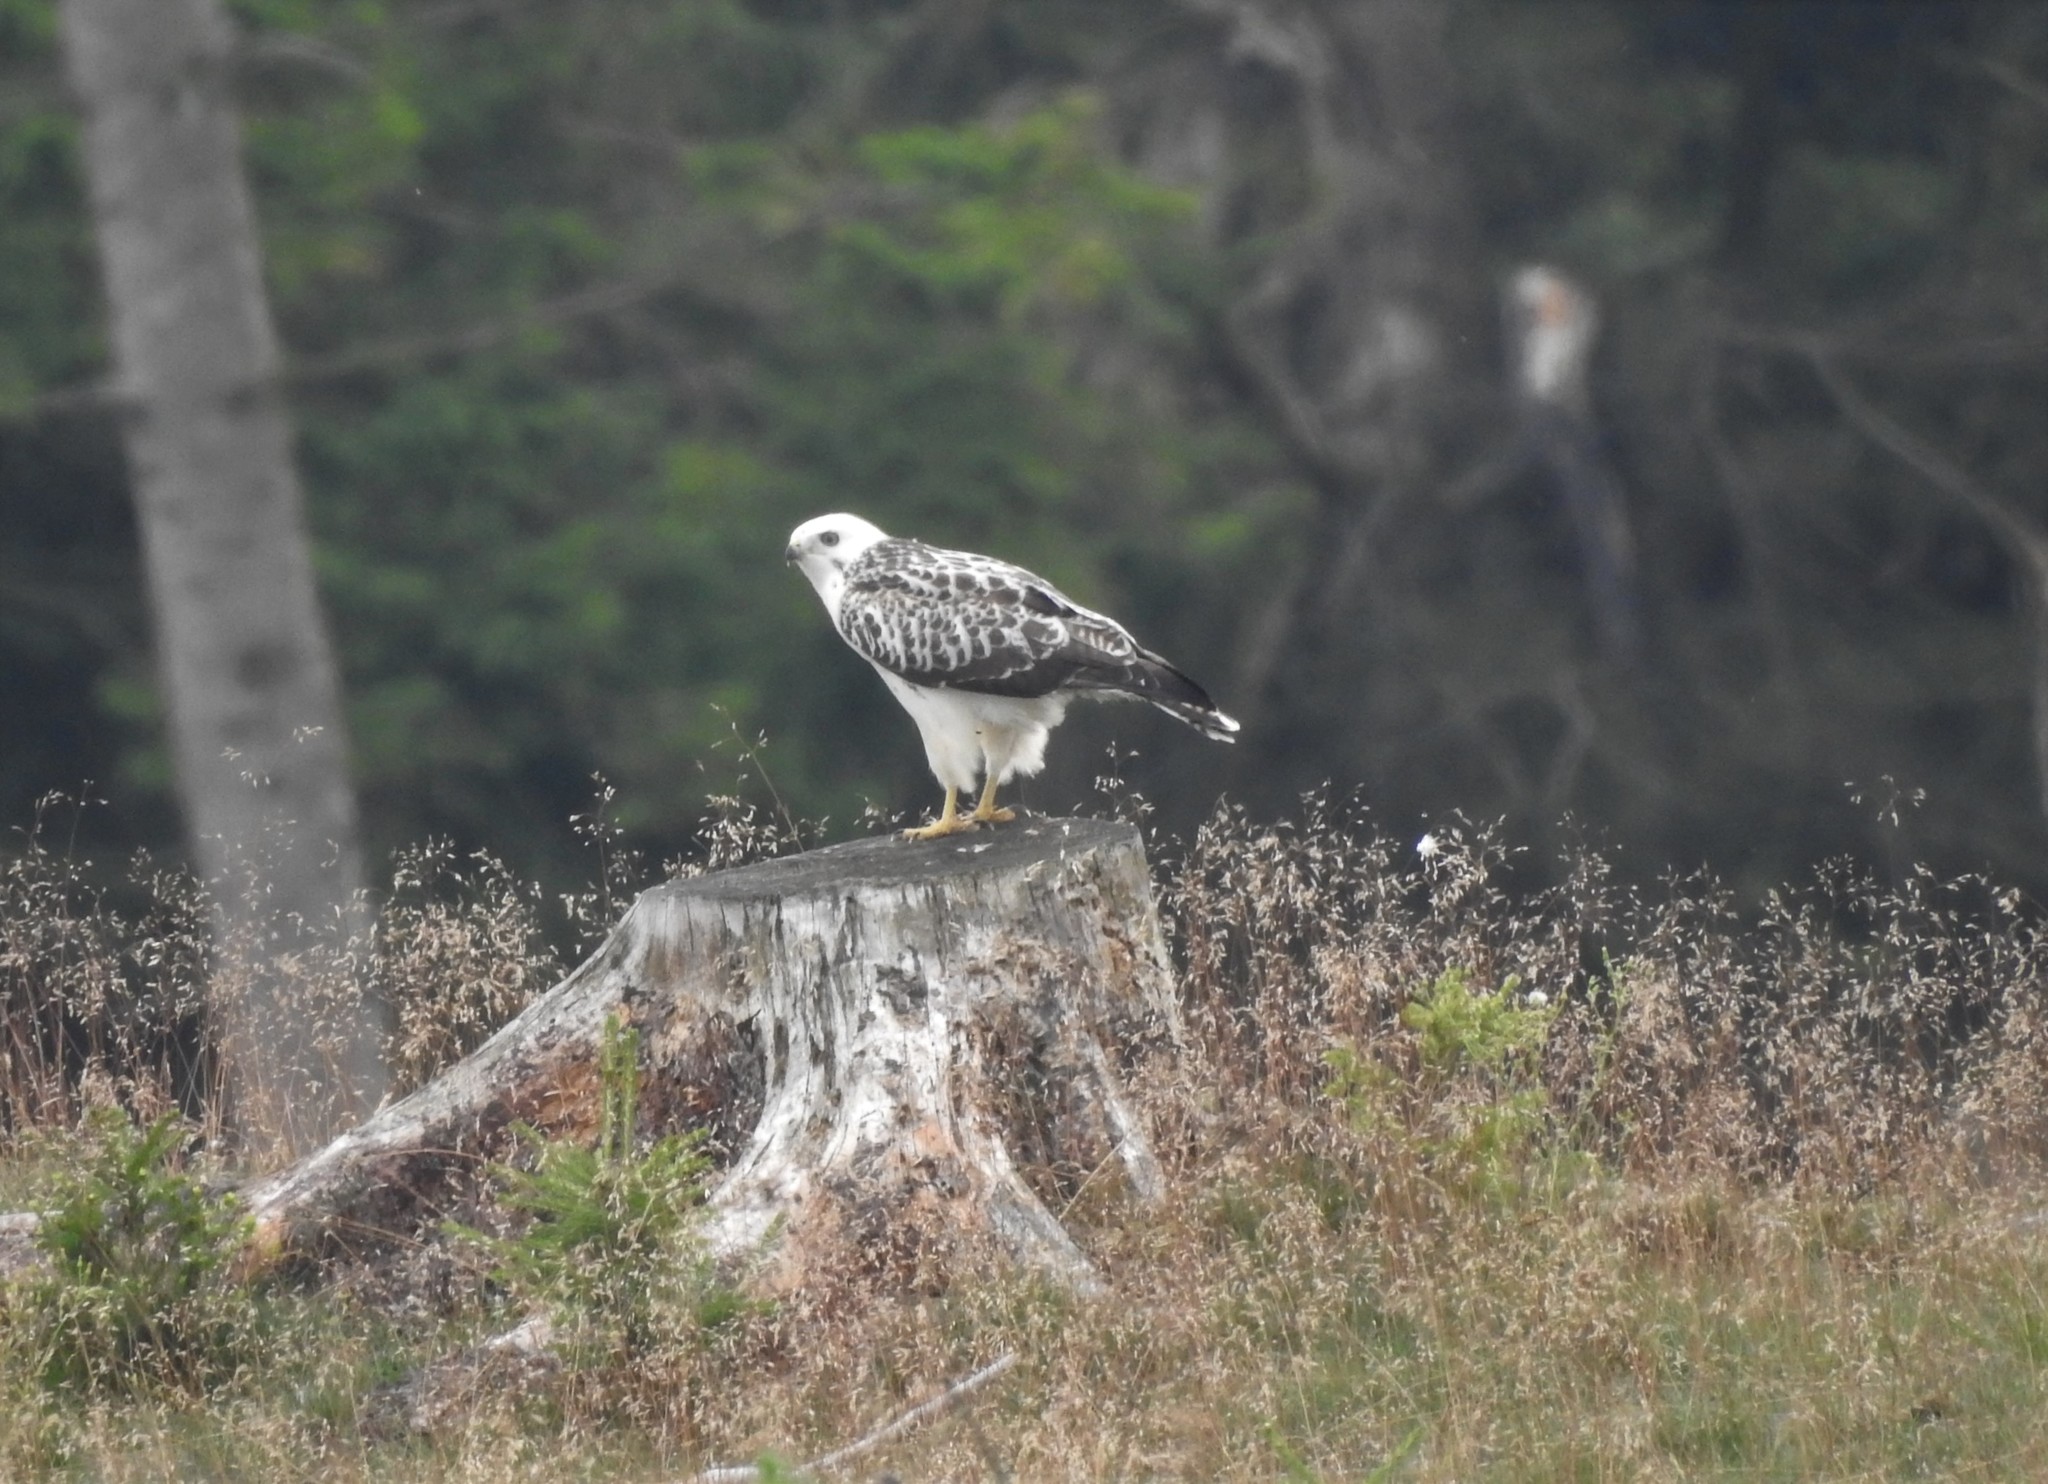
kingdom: Animalia
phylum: Chordata
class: Aves
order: Accipitriformes
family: Accipitridae
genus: Buteo
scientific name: Buteo buteo
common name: Common buzzard
